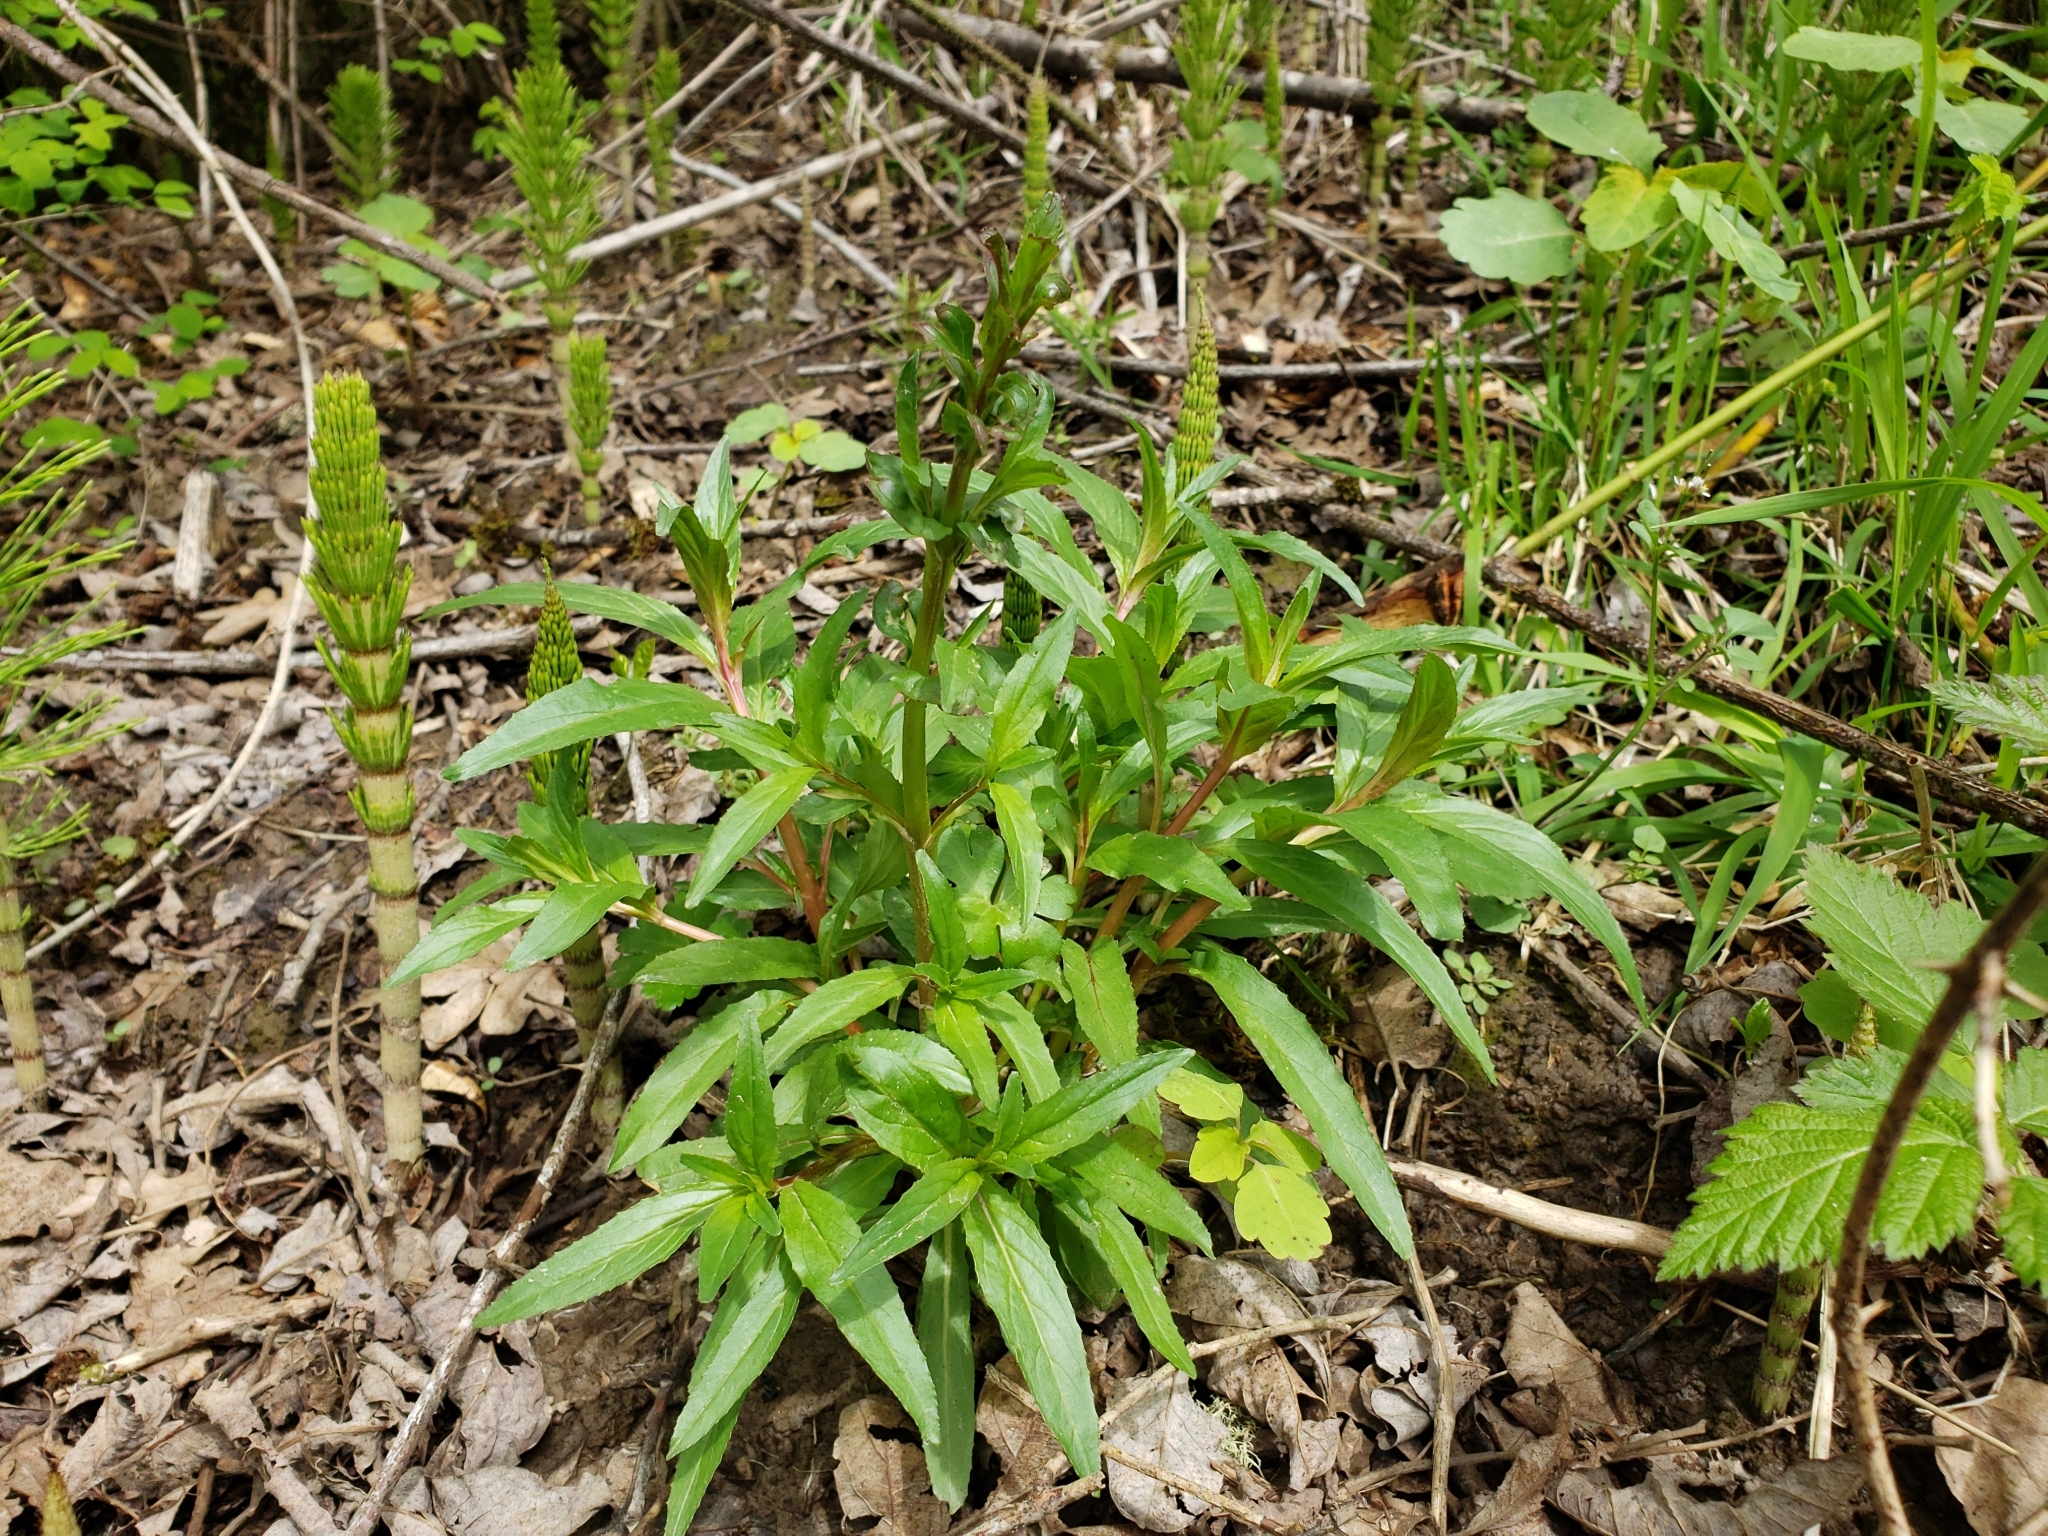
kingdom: Plantae
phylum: Tracheophyta
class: Magnoliopsida
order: Myrtales
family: Onagraceae
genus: Epilobium
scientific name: Epilobium ciliatum
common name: American willowherb
